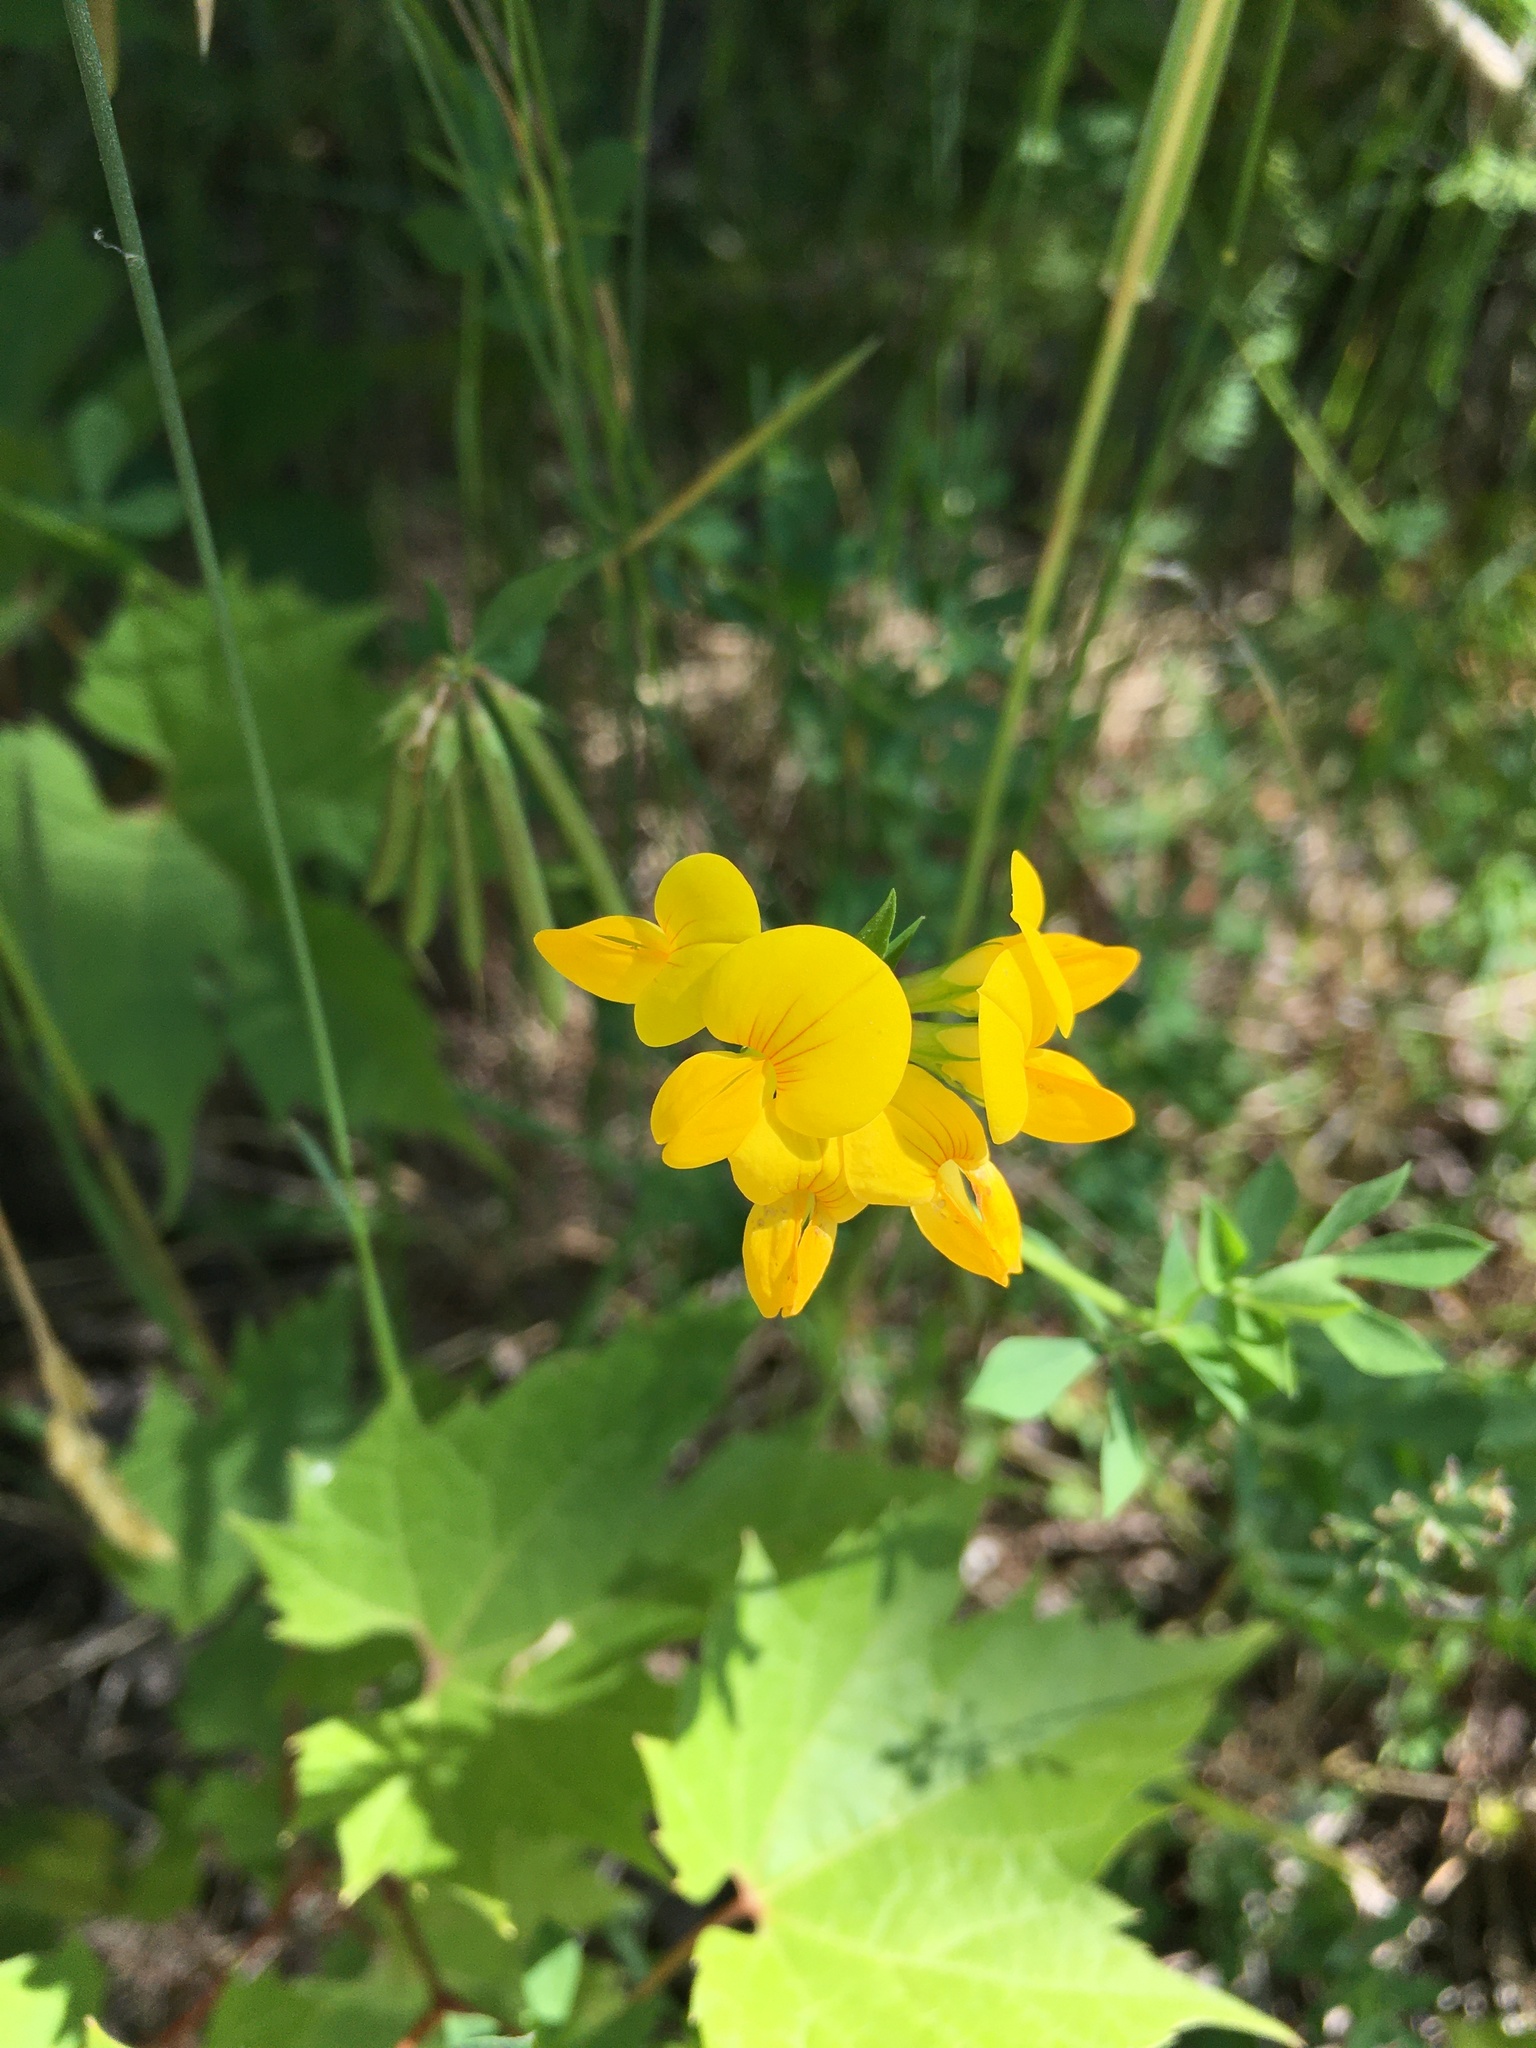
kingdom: Plantae
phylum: Tracheophyta
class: Magnoliopsida
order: Fabales
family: Fabaceae
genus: Lotus
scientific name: Lotus corniculatus
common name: Common bird's-foot-trefoil
